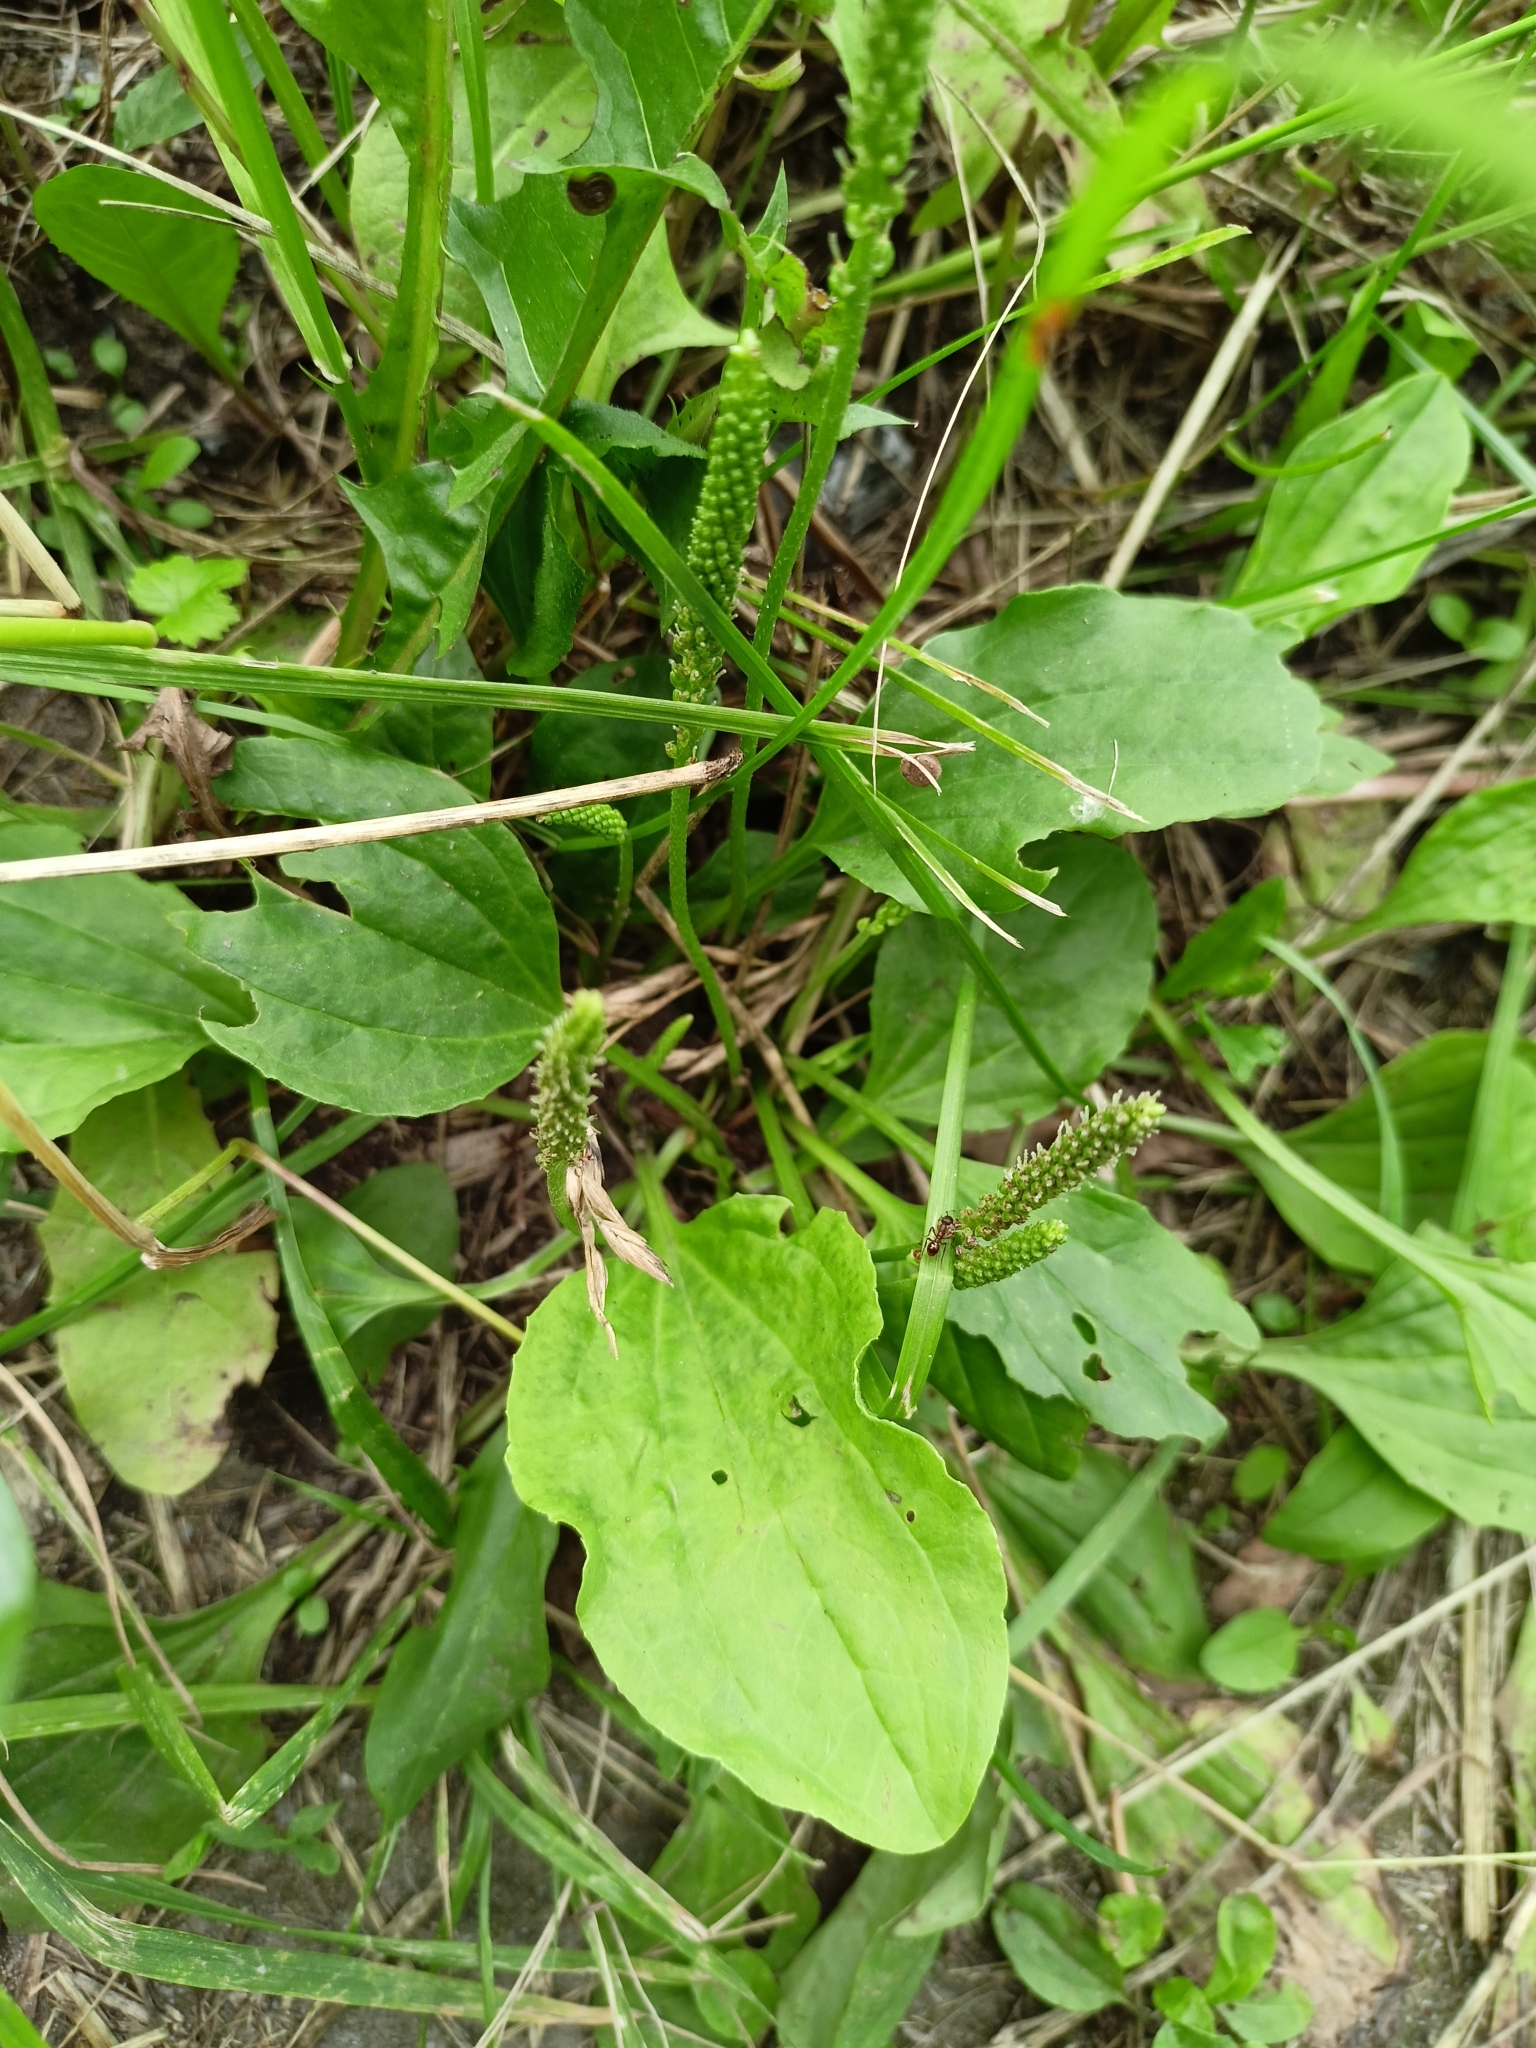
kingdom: Plantae
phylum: Tracheophyta
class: Magnoliopsida
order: Lamiales
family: Plantaginaceae
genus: Plantago
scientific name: Plantago major
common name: Common plantain
